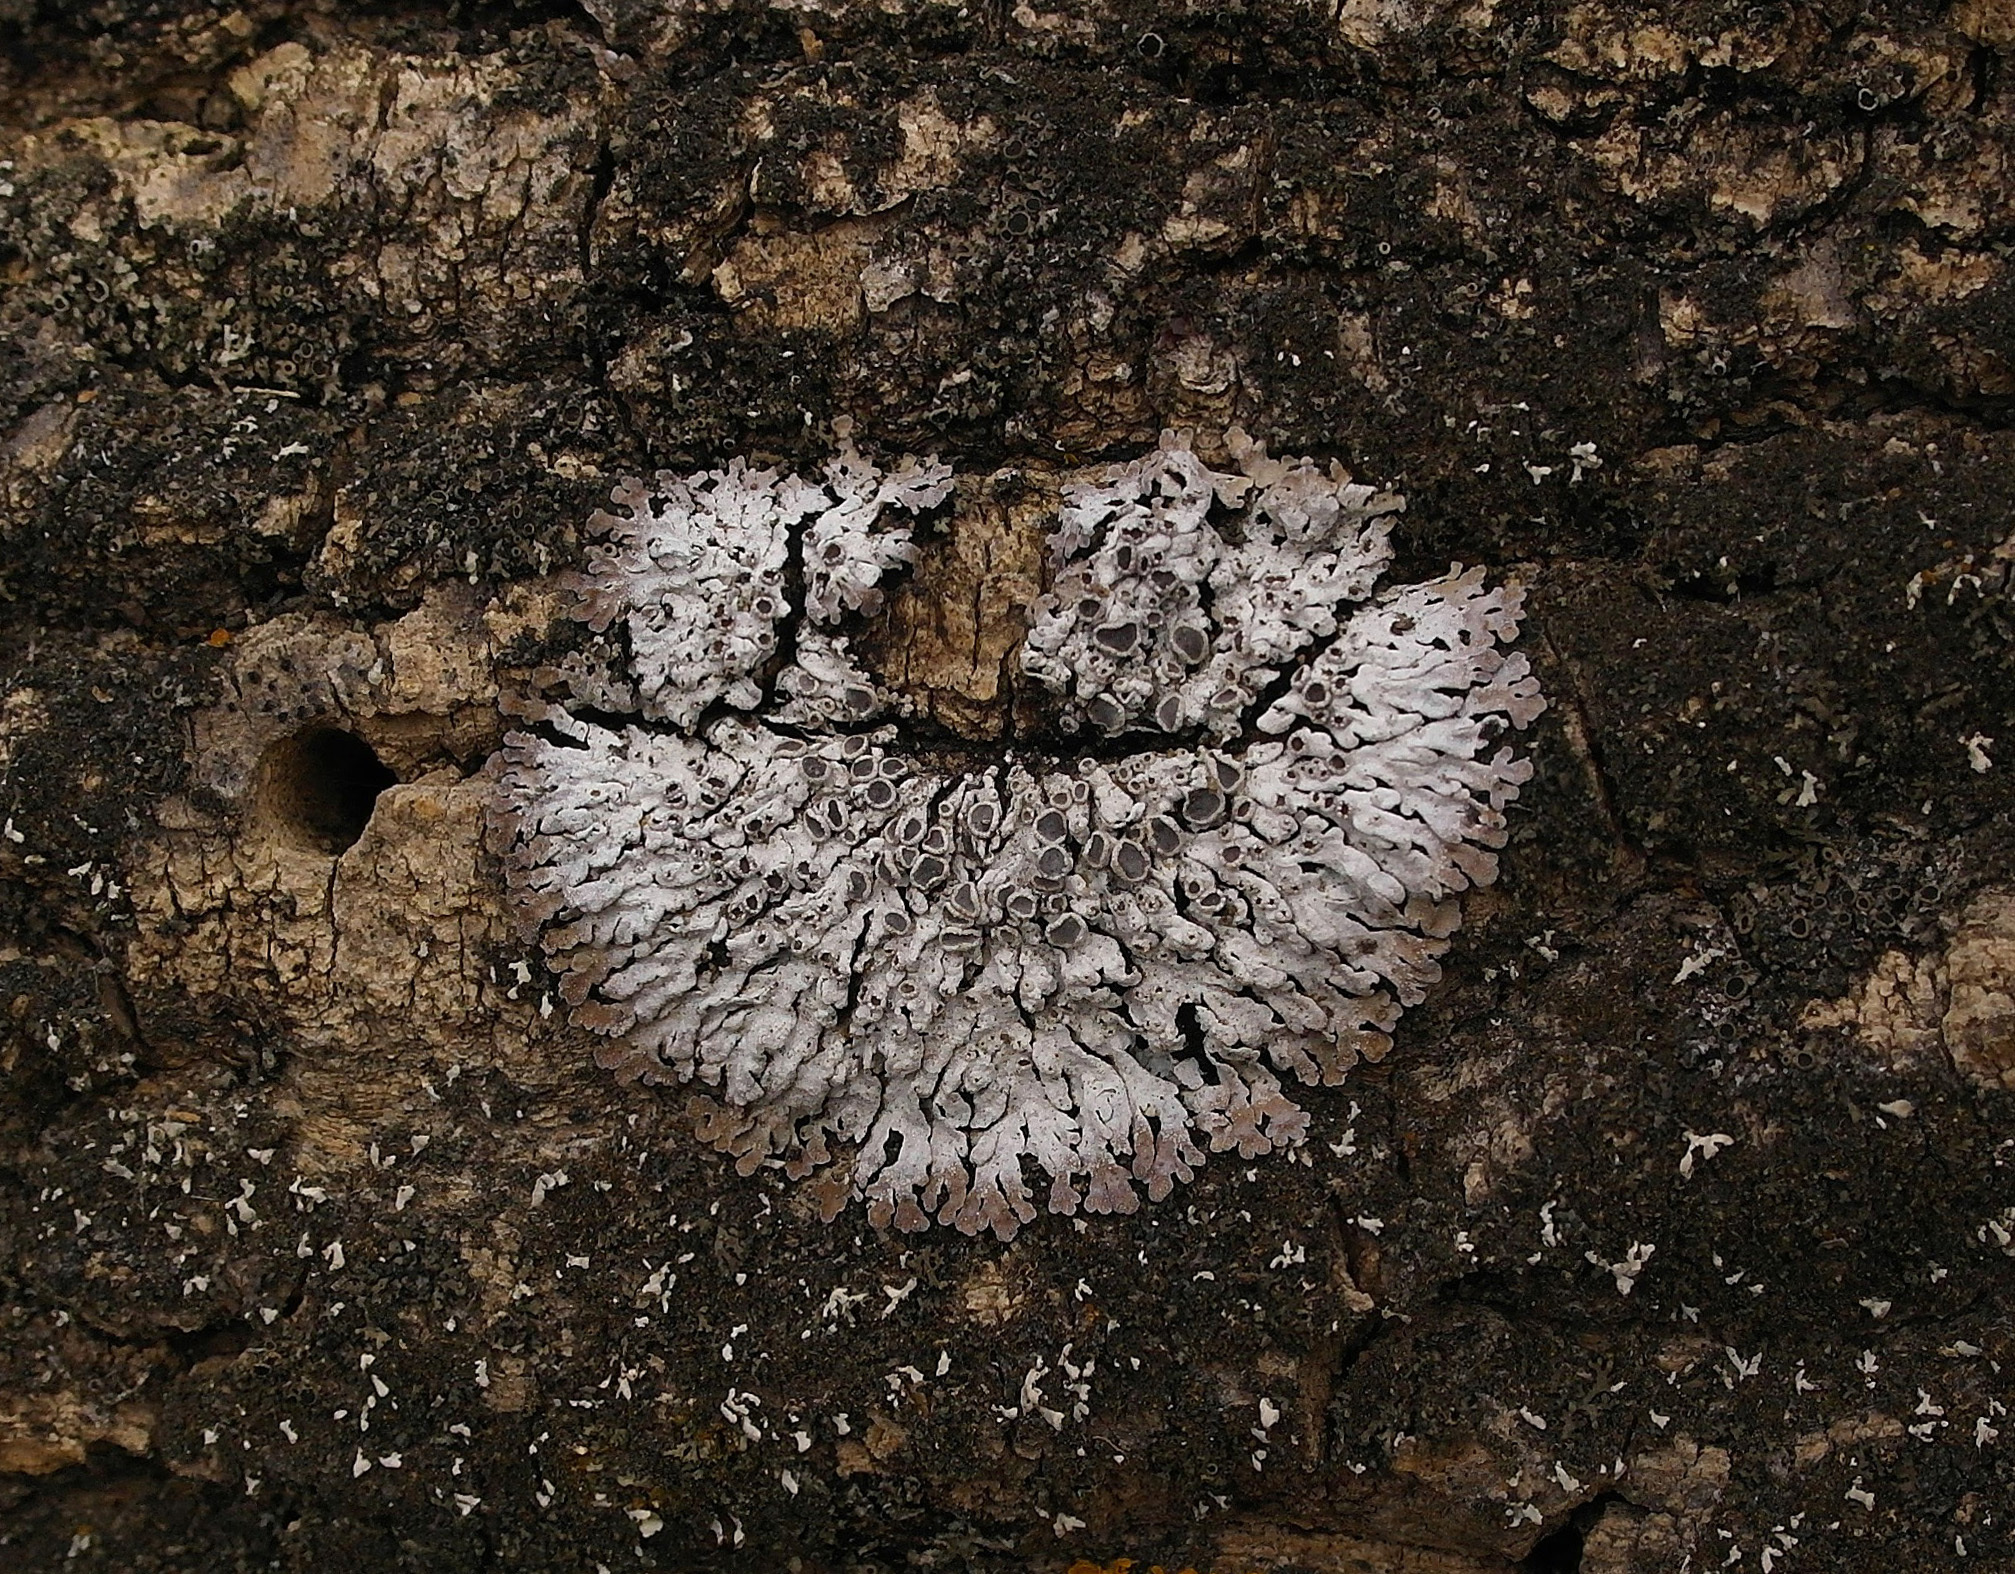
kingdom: Fungi
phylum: Ascomycota
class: Lecanoromycetes
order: Caliciales
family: Physciaceae
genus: Physconia
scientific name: Physconia distorta
